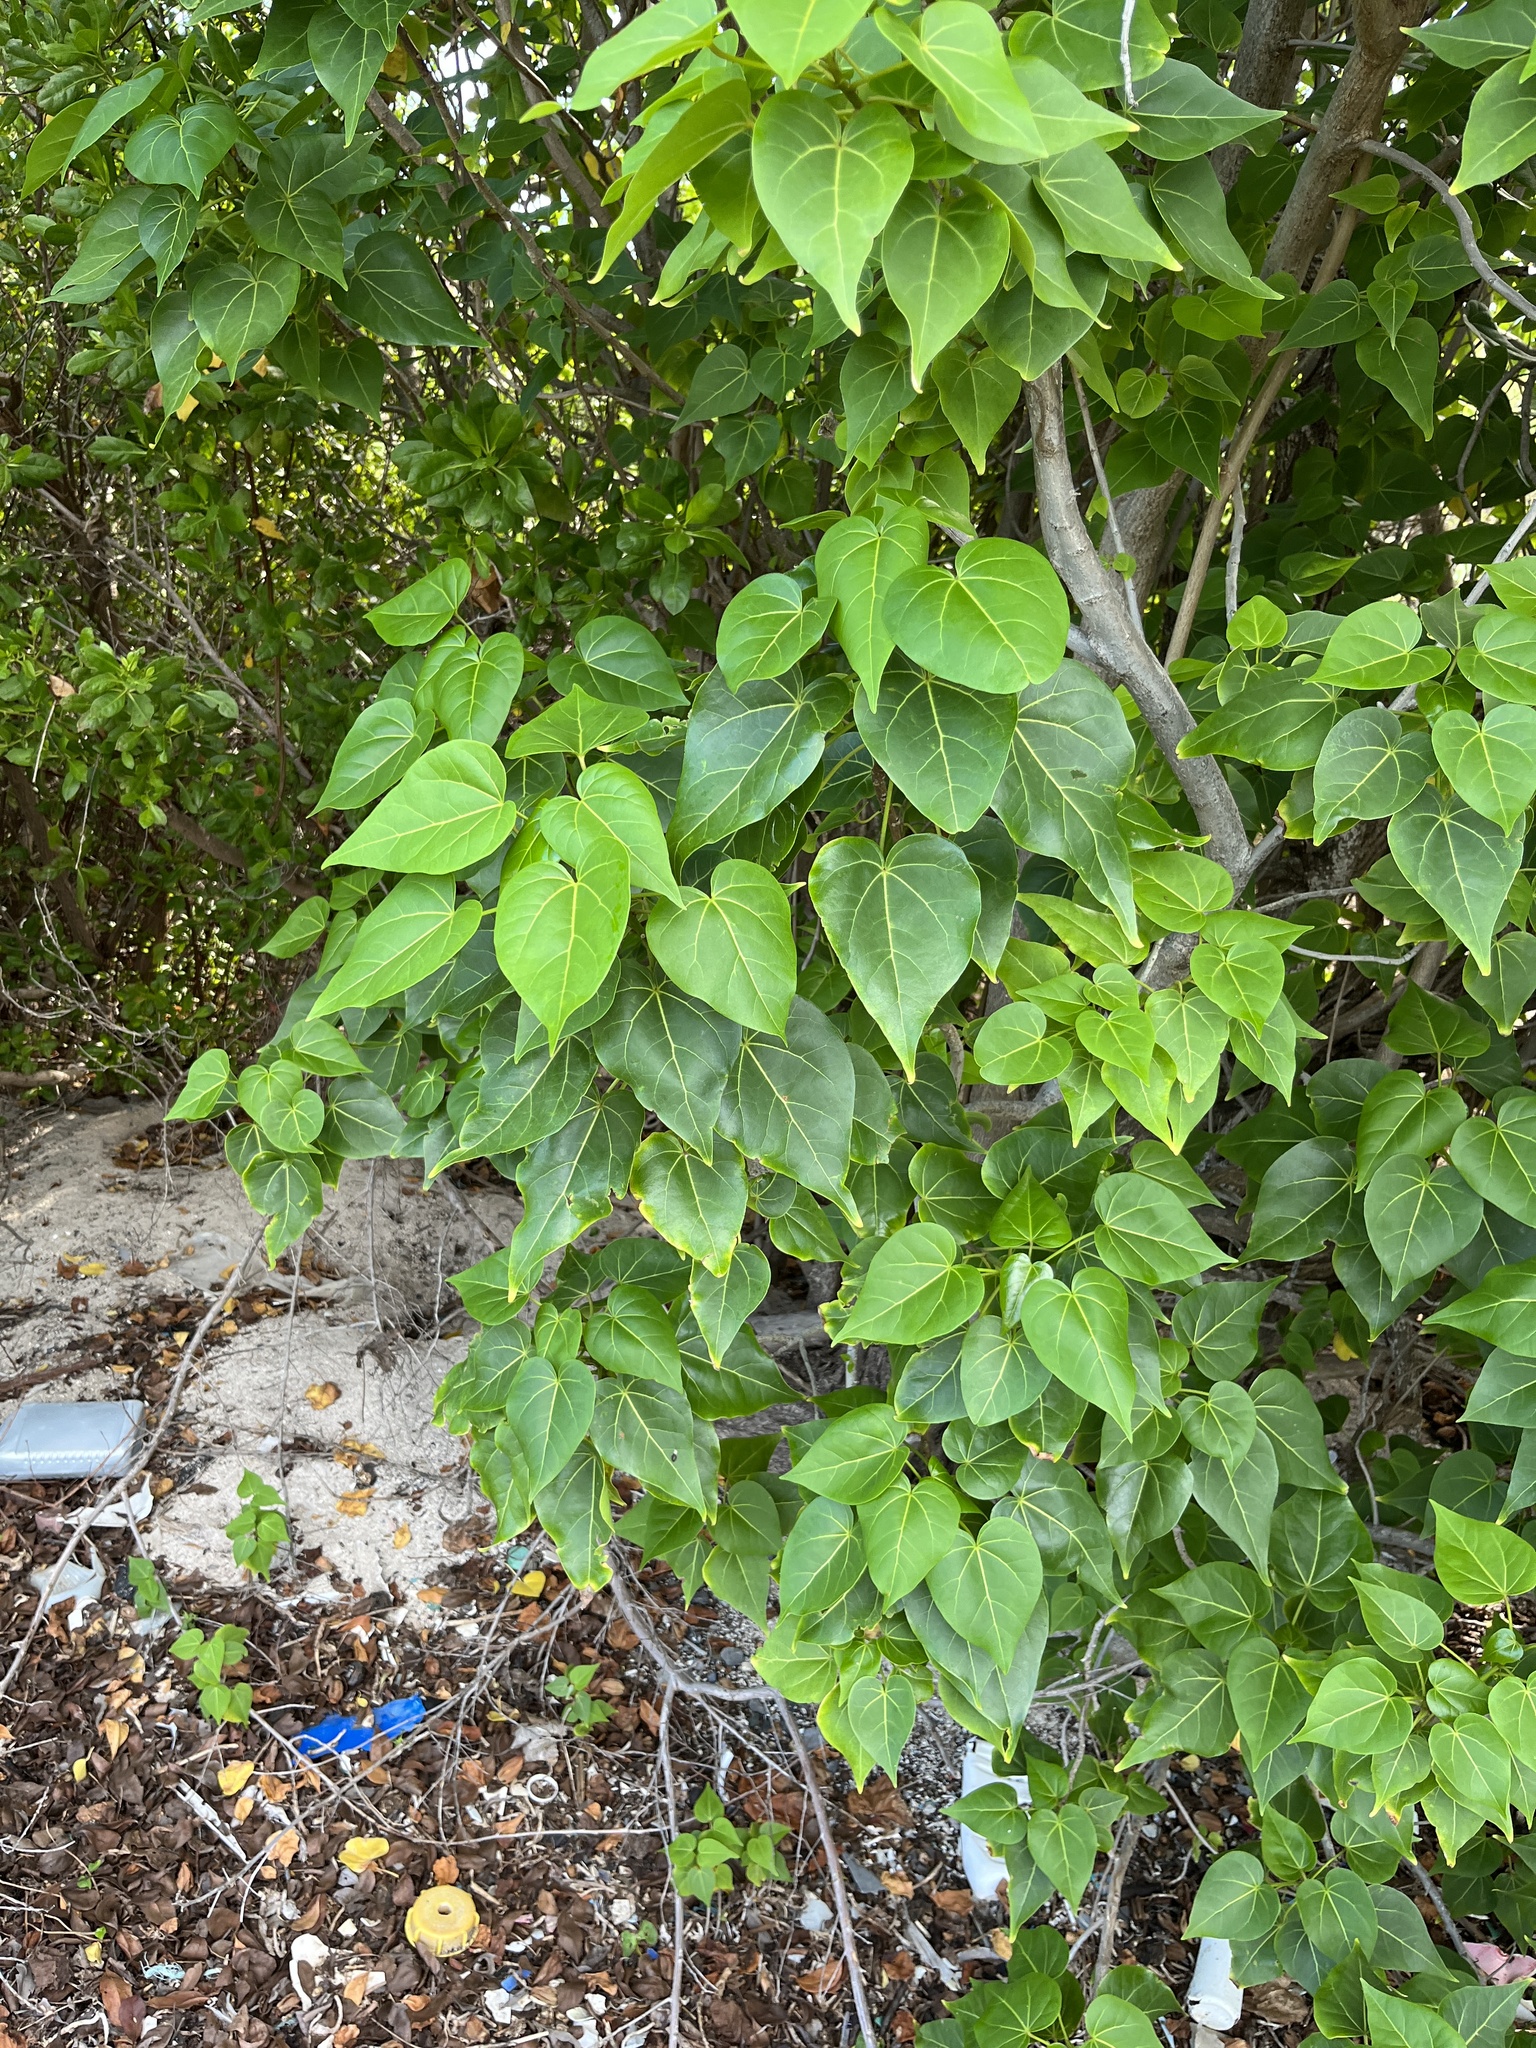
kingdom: Plantae
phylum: Tracheophyta
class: Magnoliopsida
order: Malvales
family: Malvaceae
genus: Thespesia
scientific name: Thespesia populnea
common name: Seaside mahoe
